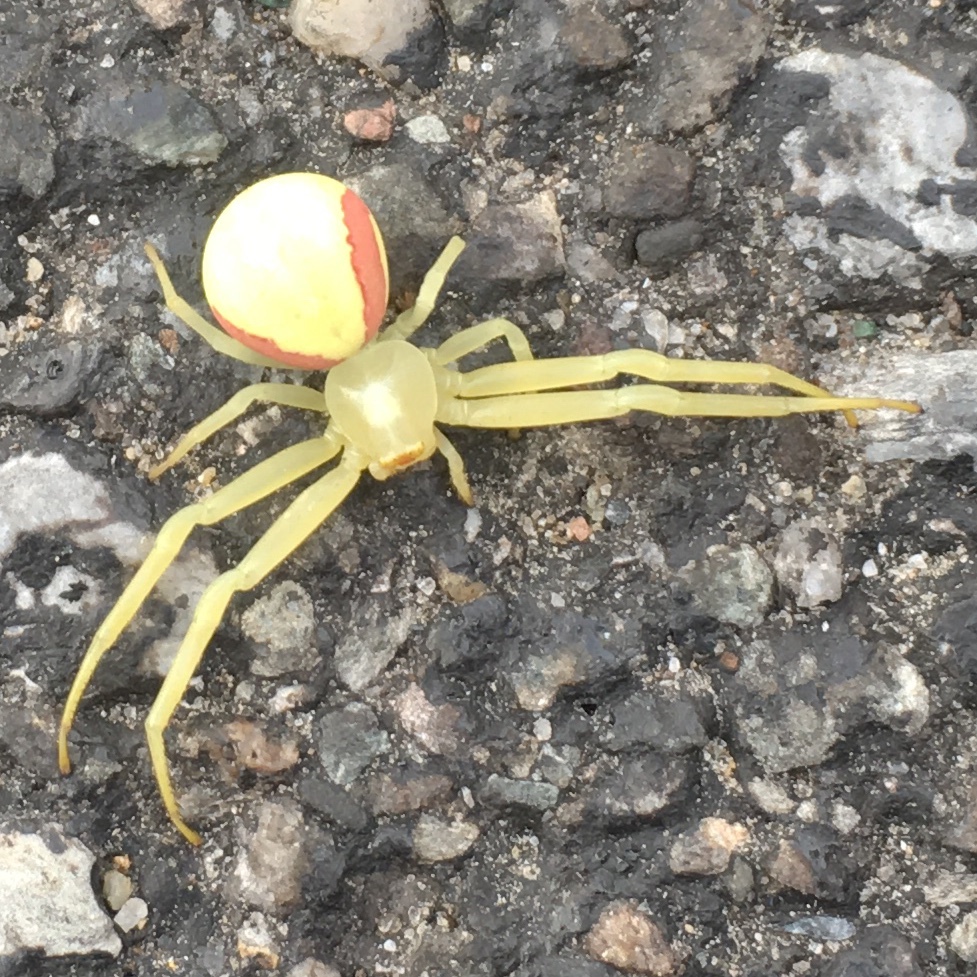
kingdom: Animalia
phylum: Arthropoda
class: Arachnida
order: Araneae
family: Thomisidae
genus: Misumena
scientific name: Misumena vatia
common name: Goldenrod crab spider
